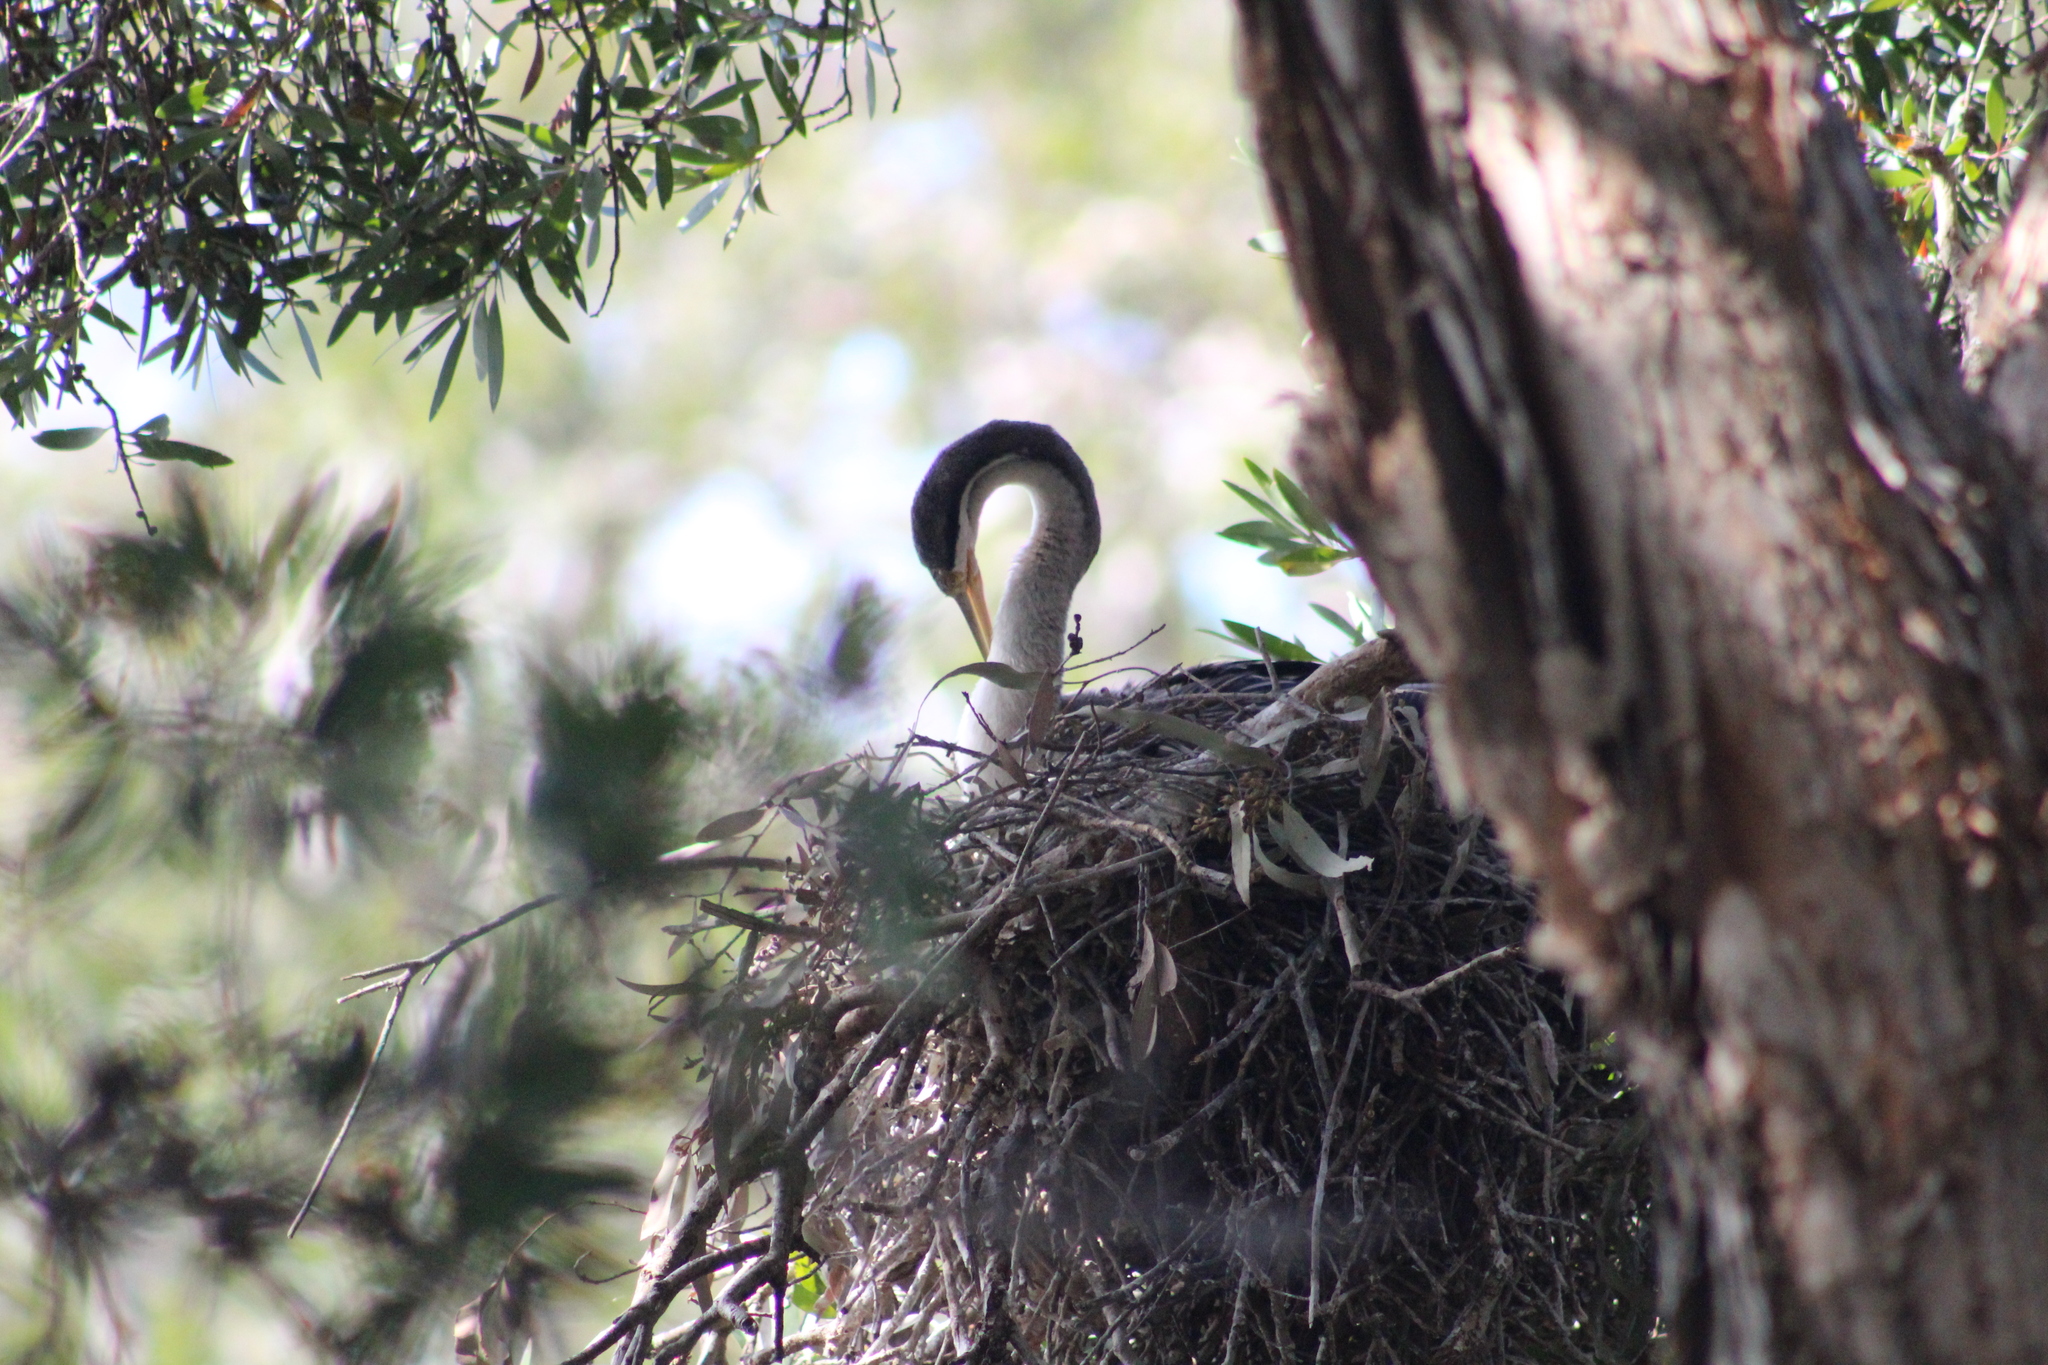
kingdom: Animalia
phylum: Chordata
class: Aves
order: Suliformes
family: Anhingidae
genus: Anhinga
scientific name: Anhinga novaehollandiae
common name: Australasian darter
